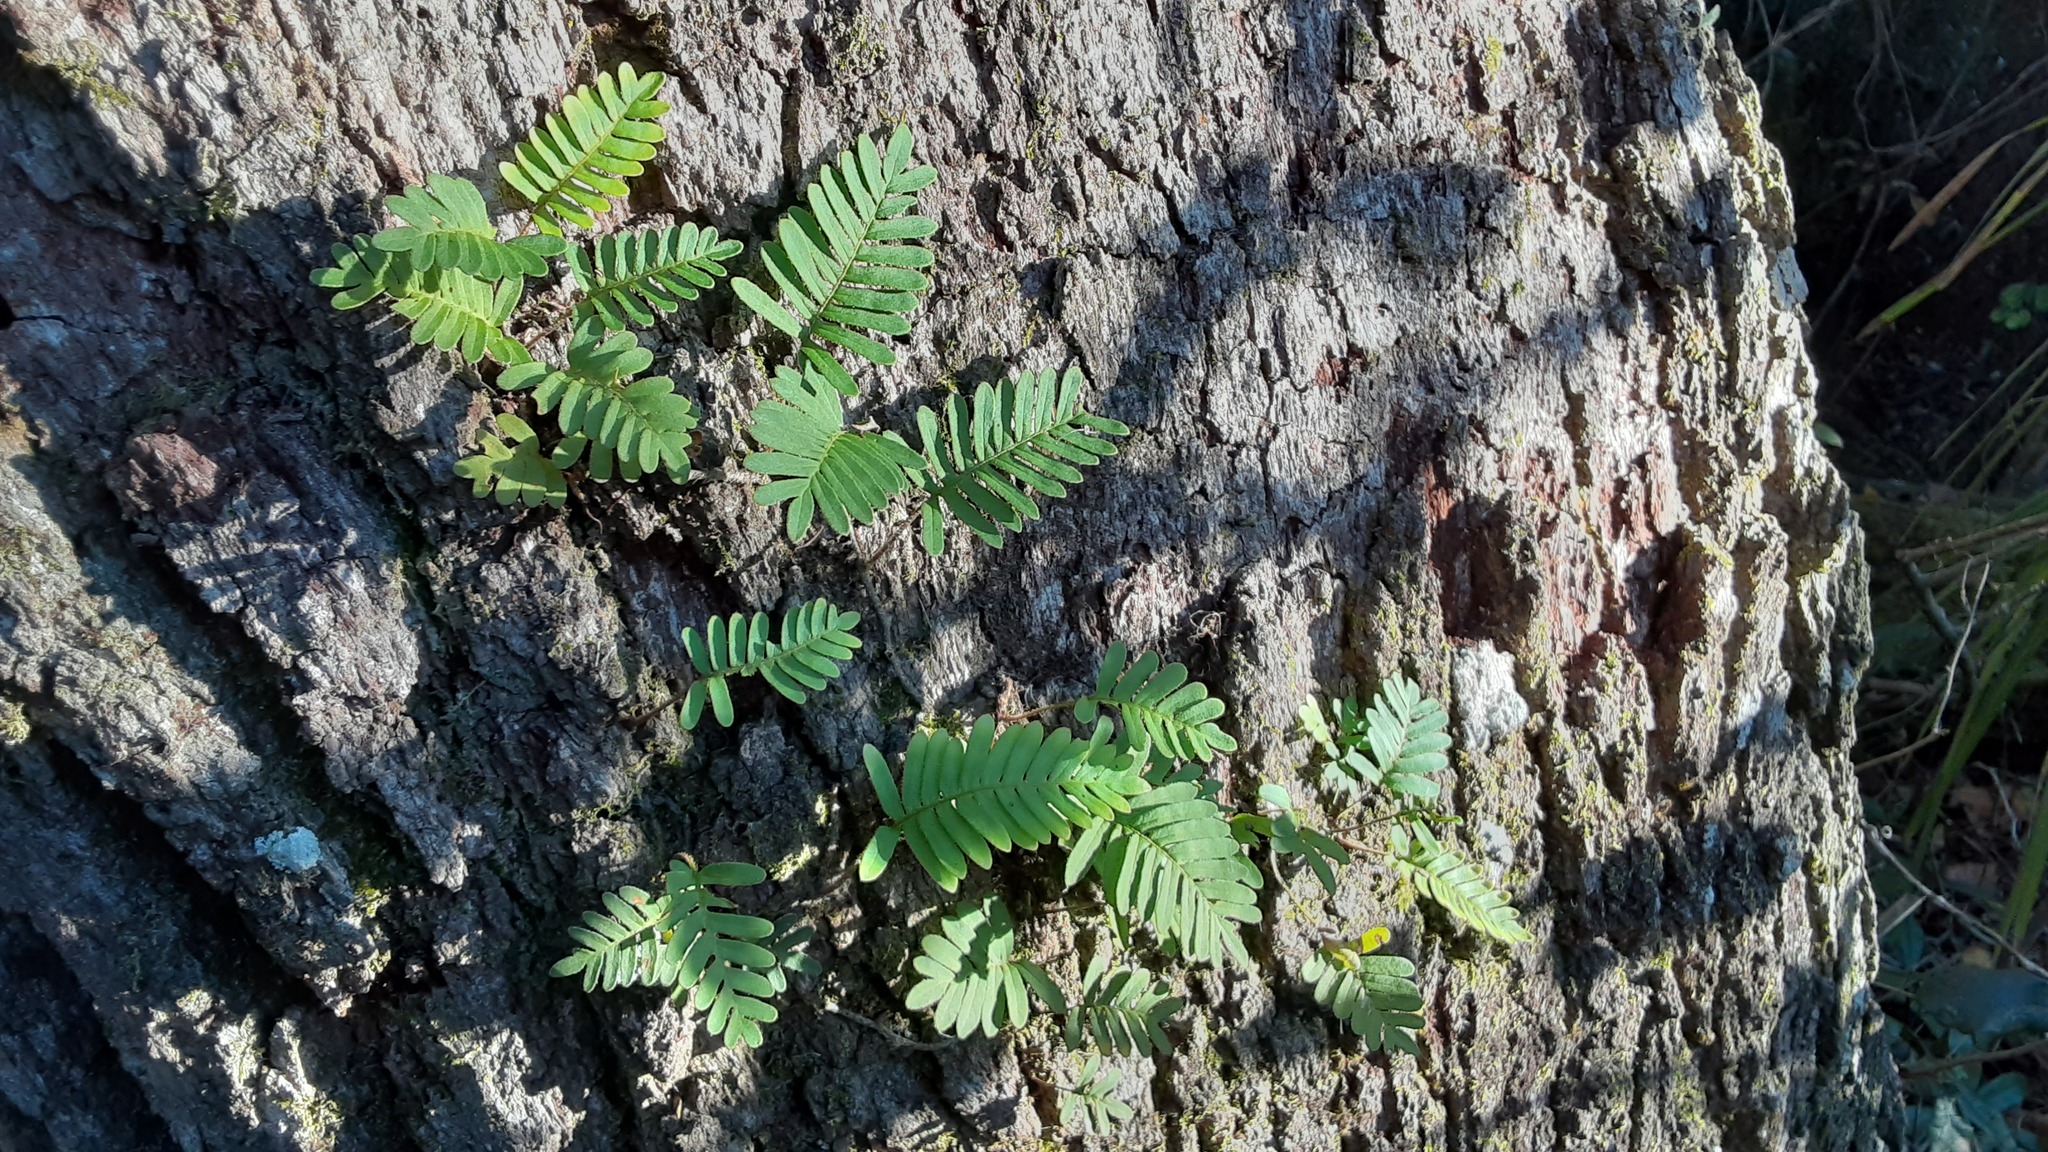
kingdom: Plantae
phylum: Tracheophyta
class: Polypodiopsida
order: Polypodiales
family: Polypodiaceae
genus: Pleopeltis
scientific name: Pleopeltis michauxiana
